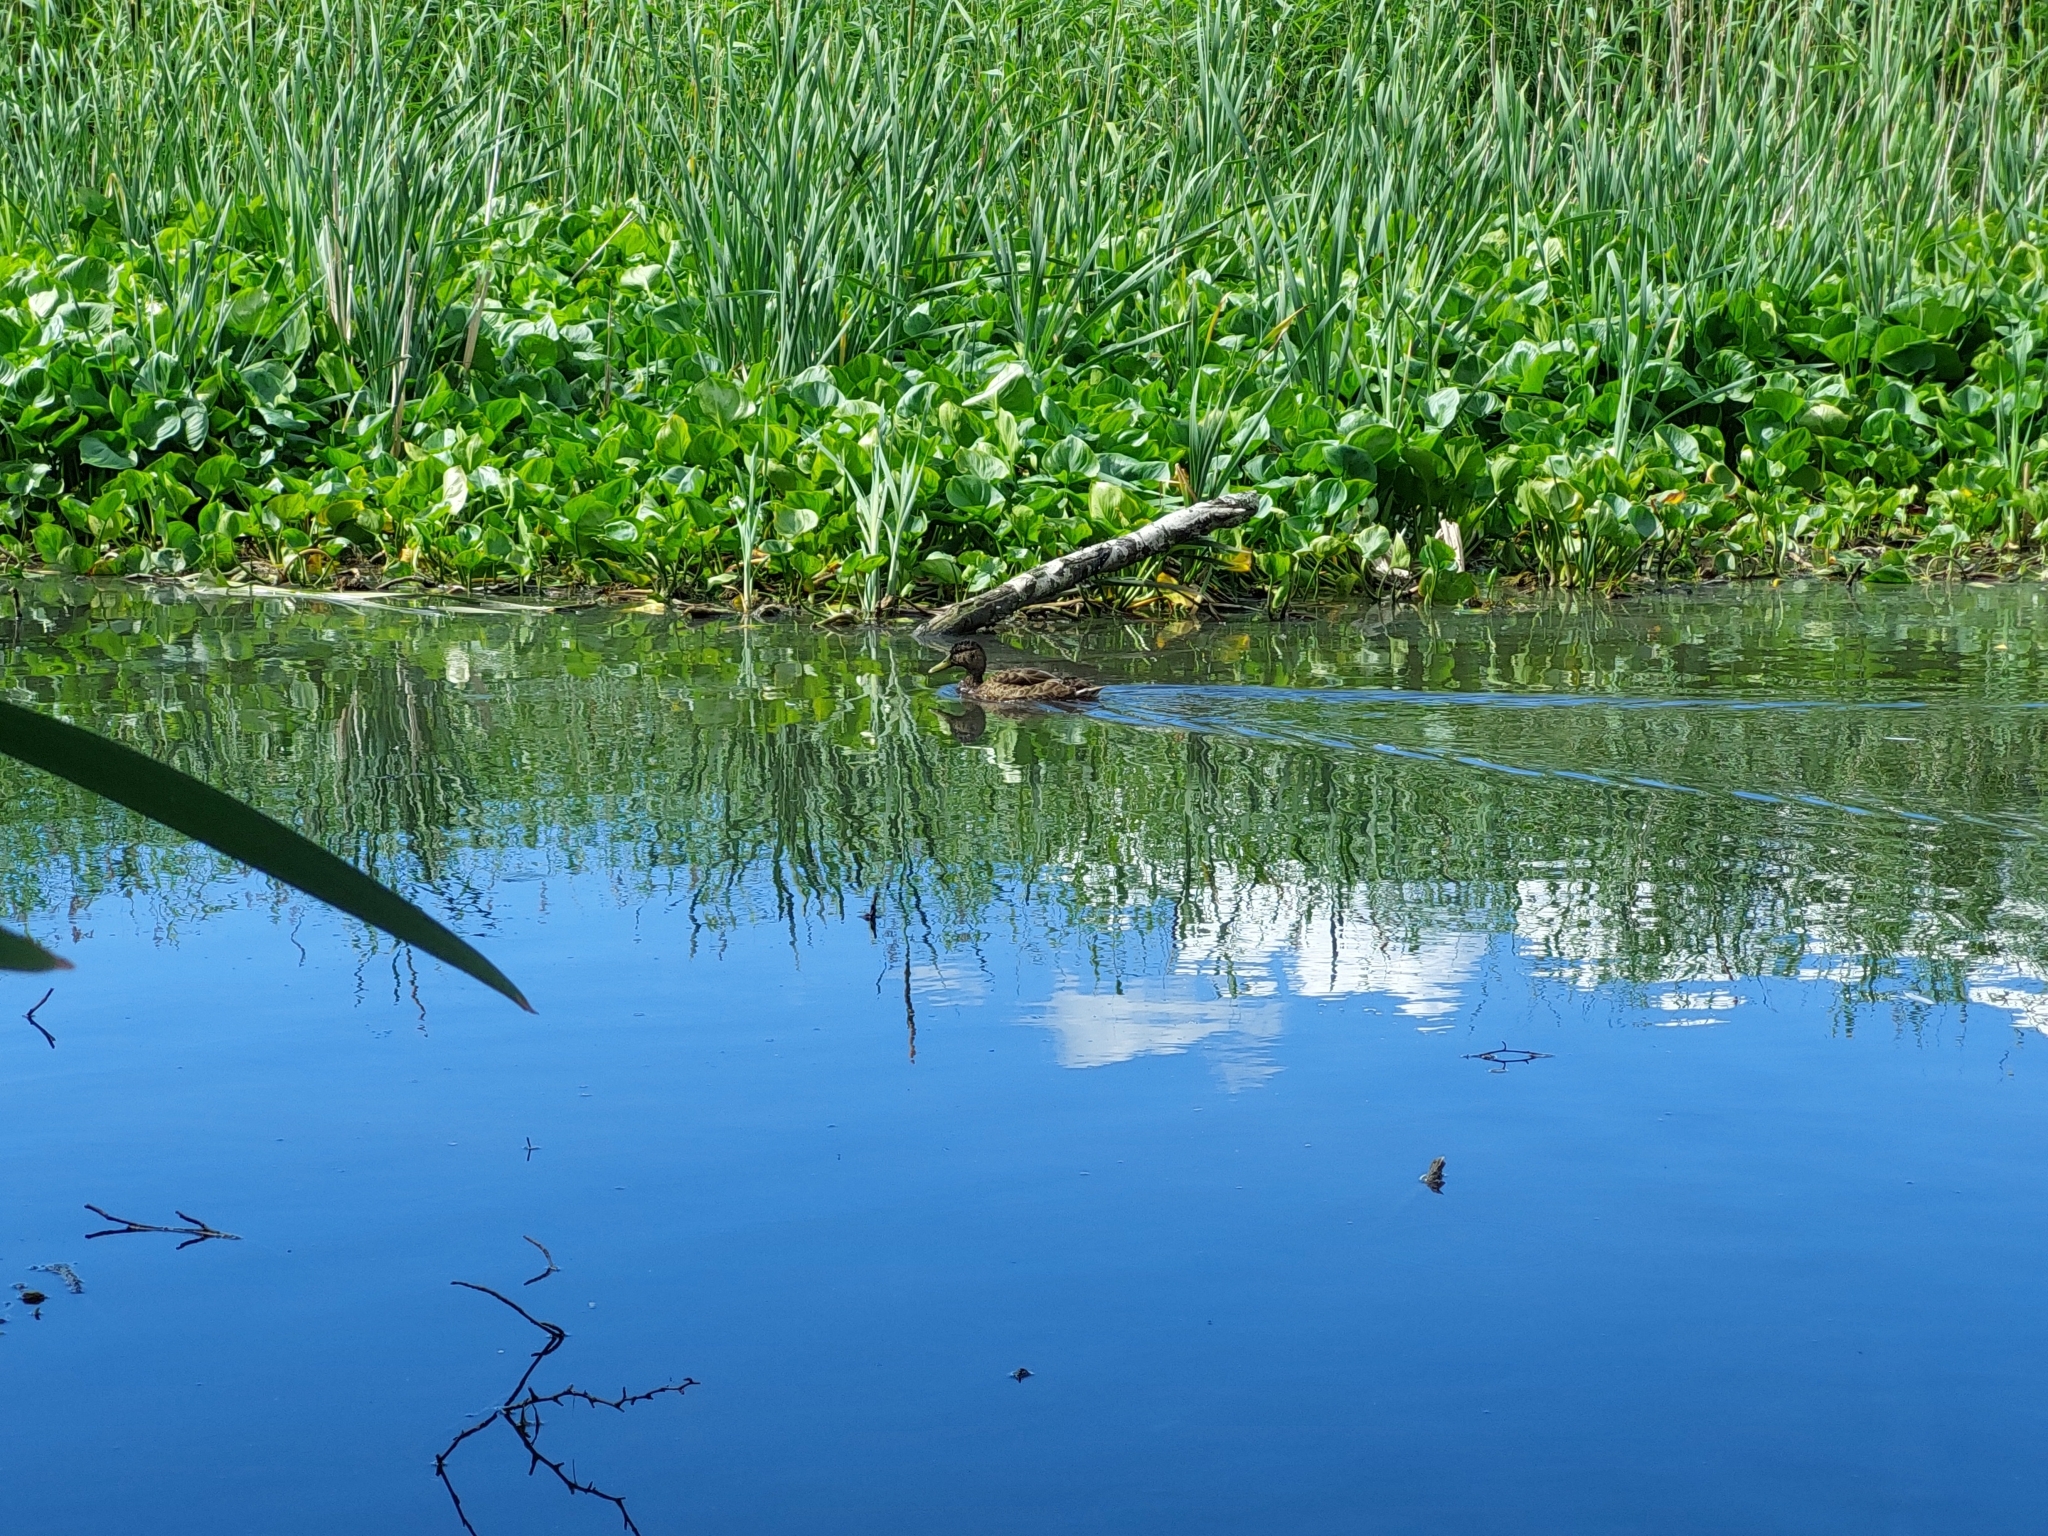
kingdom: Animalia
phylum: Chordata
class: Aves
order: Anseriformes
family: Anatidae
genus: Anas
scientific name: Anas platyrhynchos
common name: Mallard
